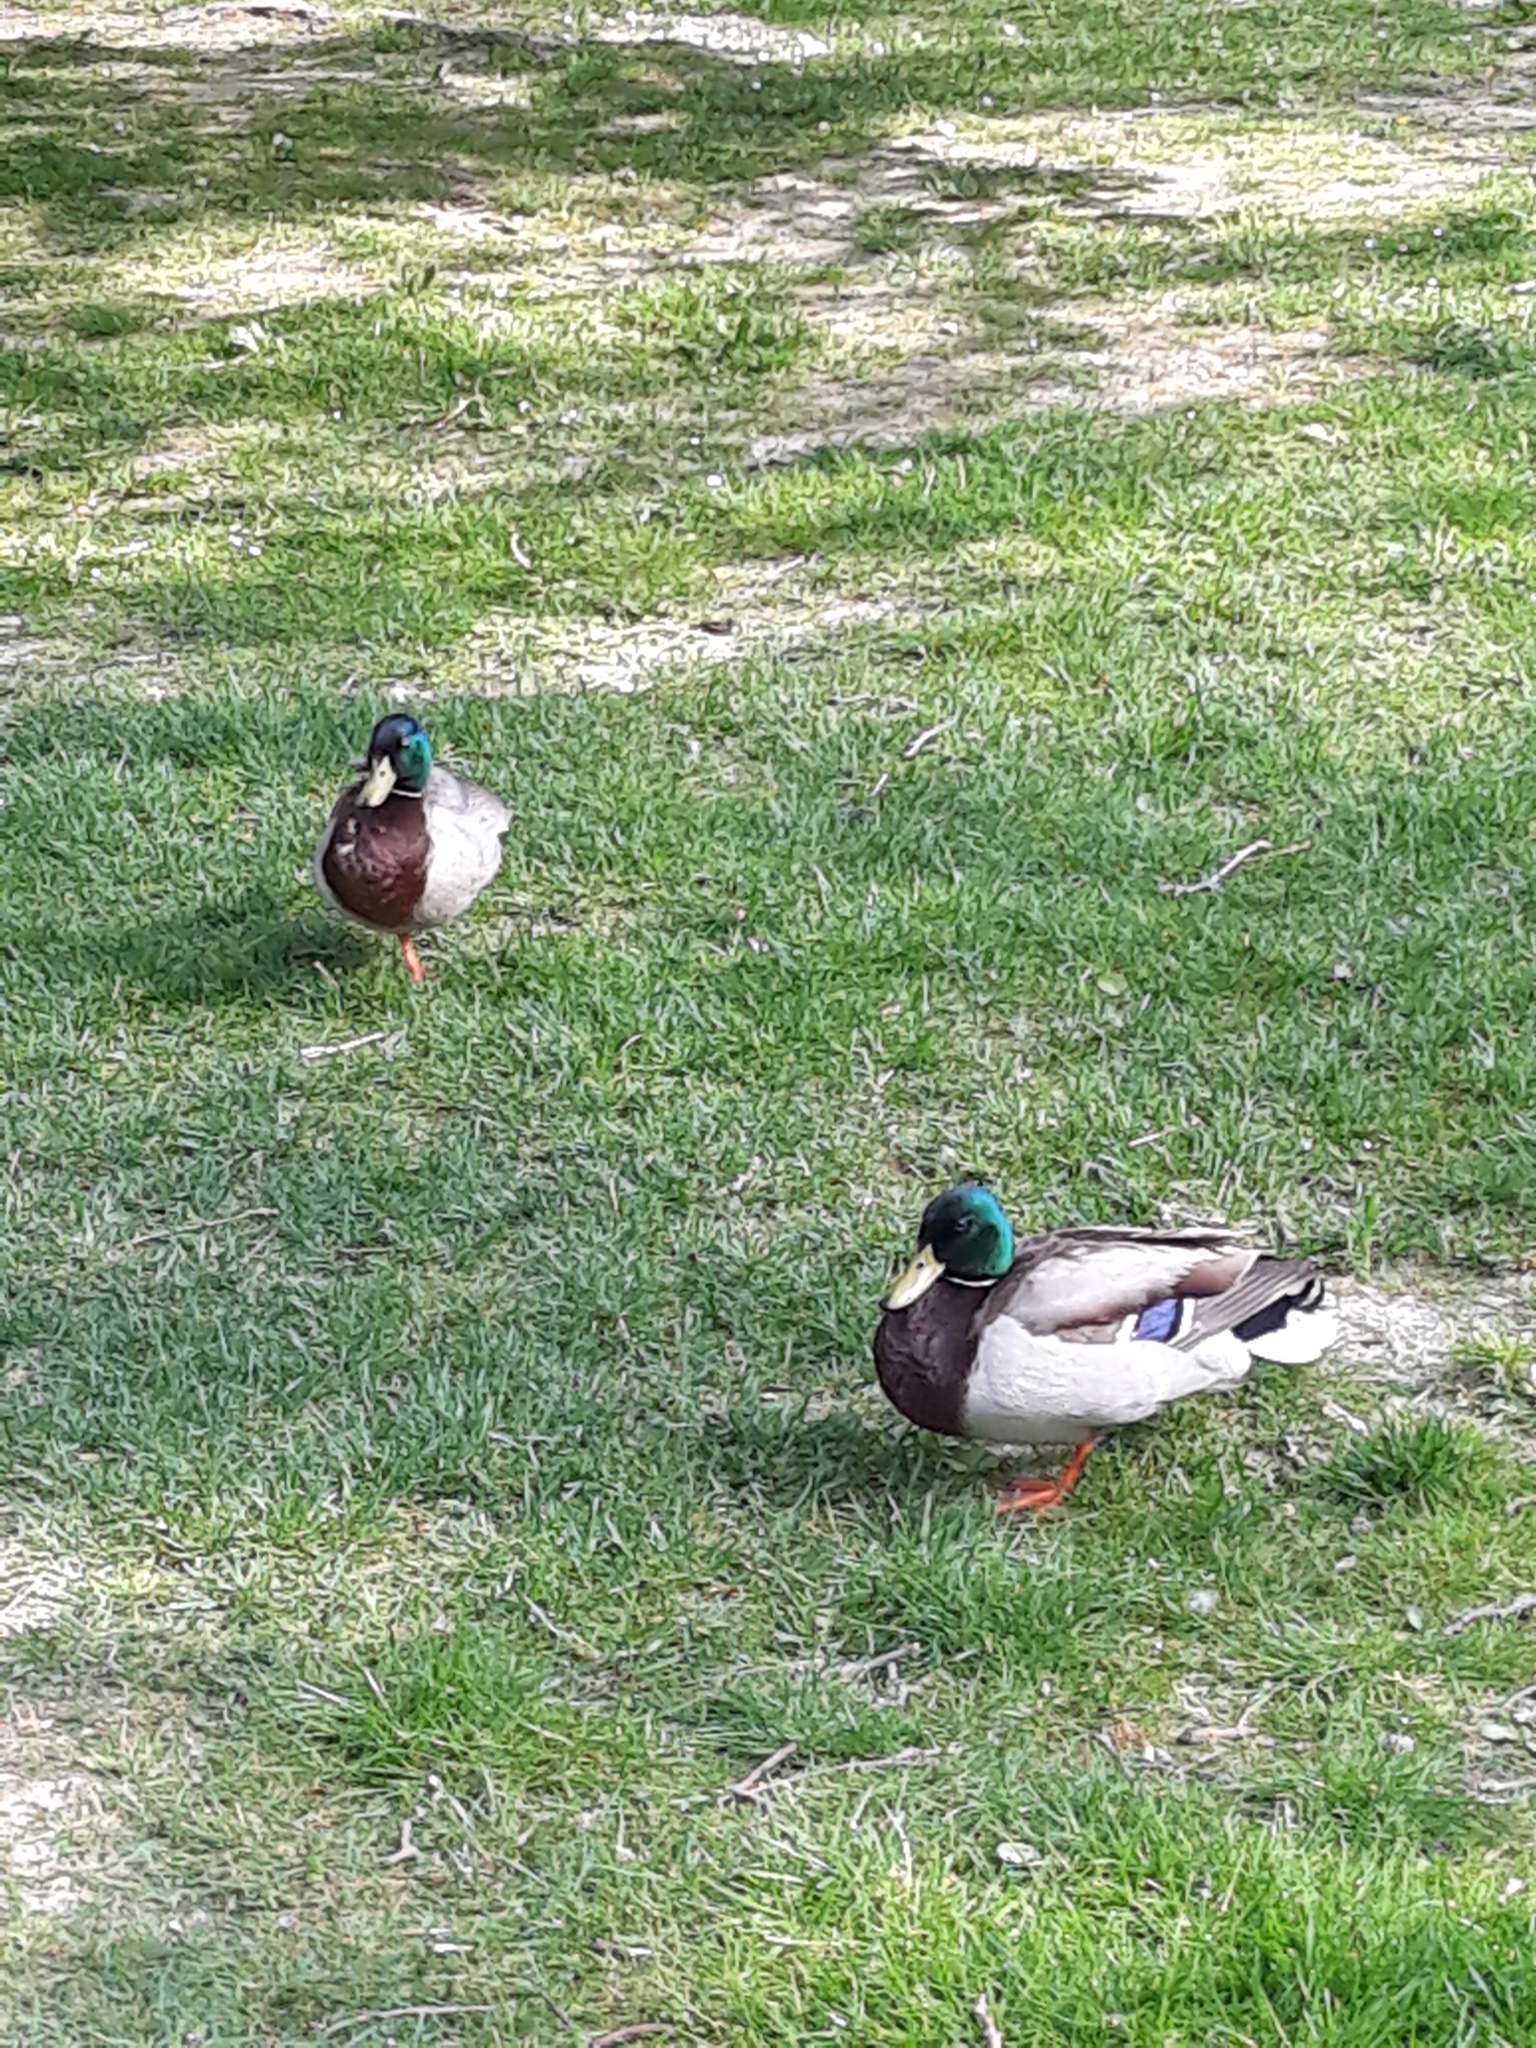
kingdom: Animalia
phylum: Chordata
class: Aves
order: Anseriformes
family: Anatidae
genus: Anas
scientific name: Anas platyrhynchos
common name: Mallard
